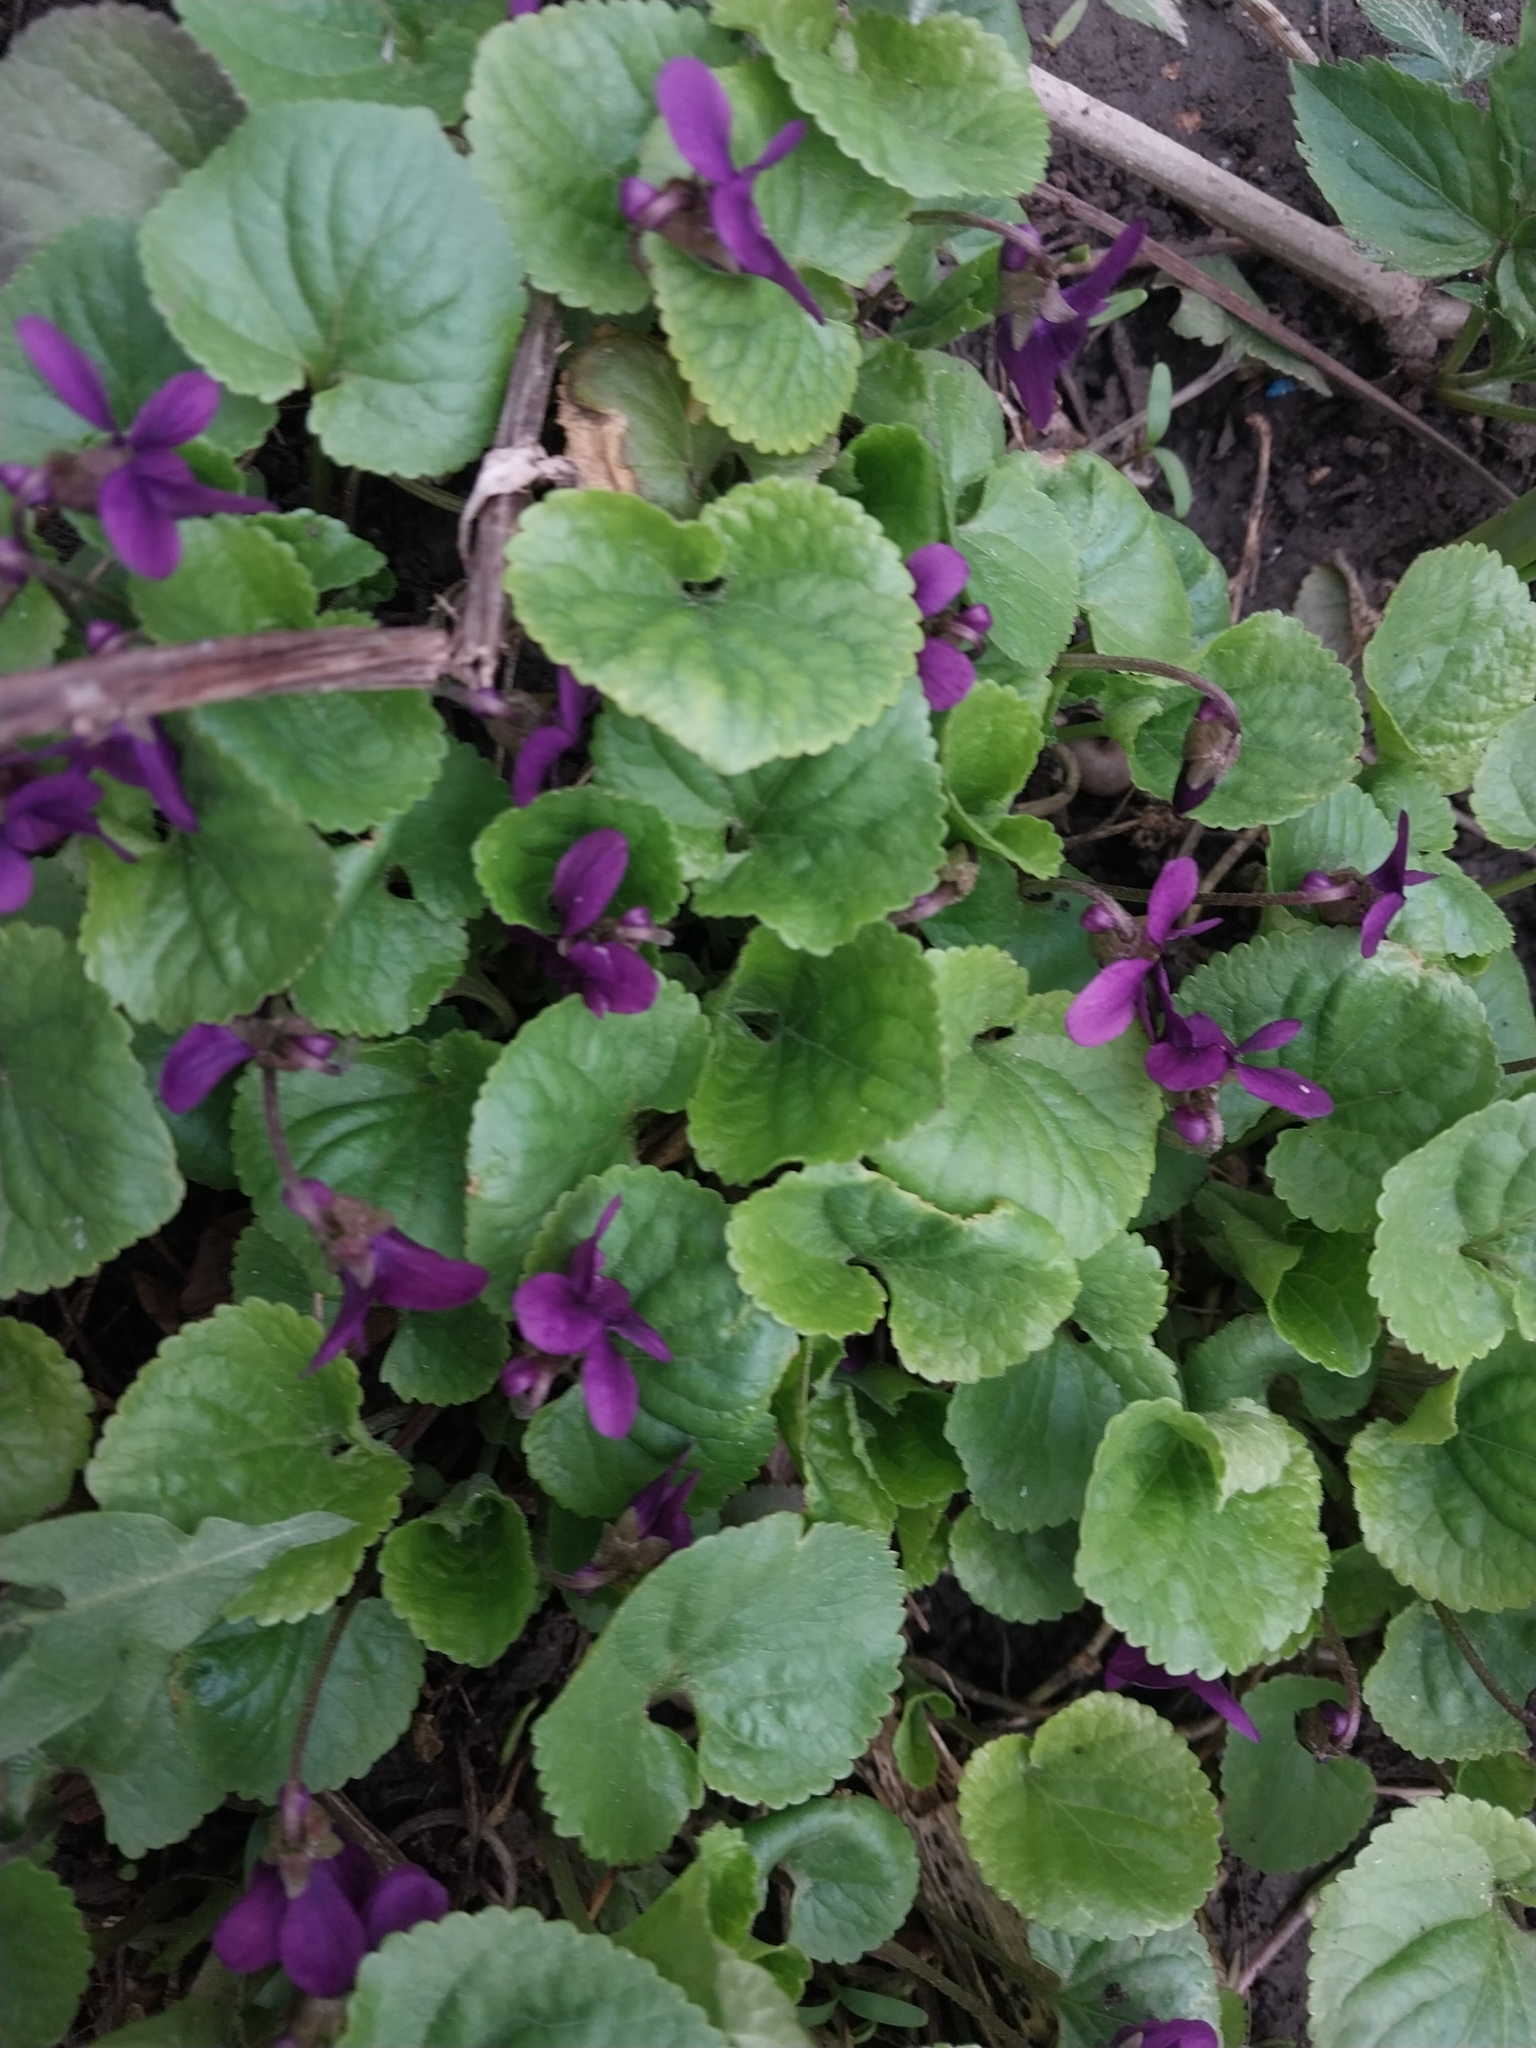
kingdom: Plantae
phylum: Tracheophyta
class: Magnoliopsida
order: Malpighiales
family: Violaceae
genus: Viola
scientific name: Viola odorata
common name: Sweet violet
